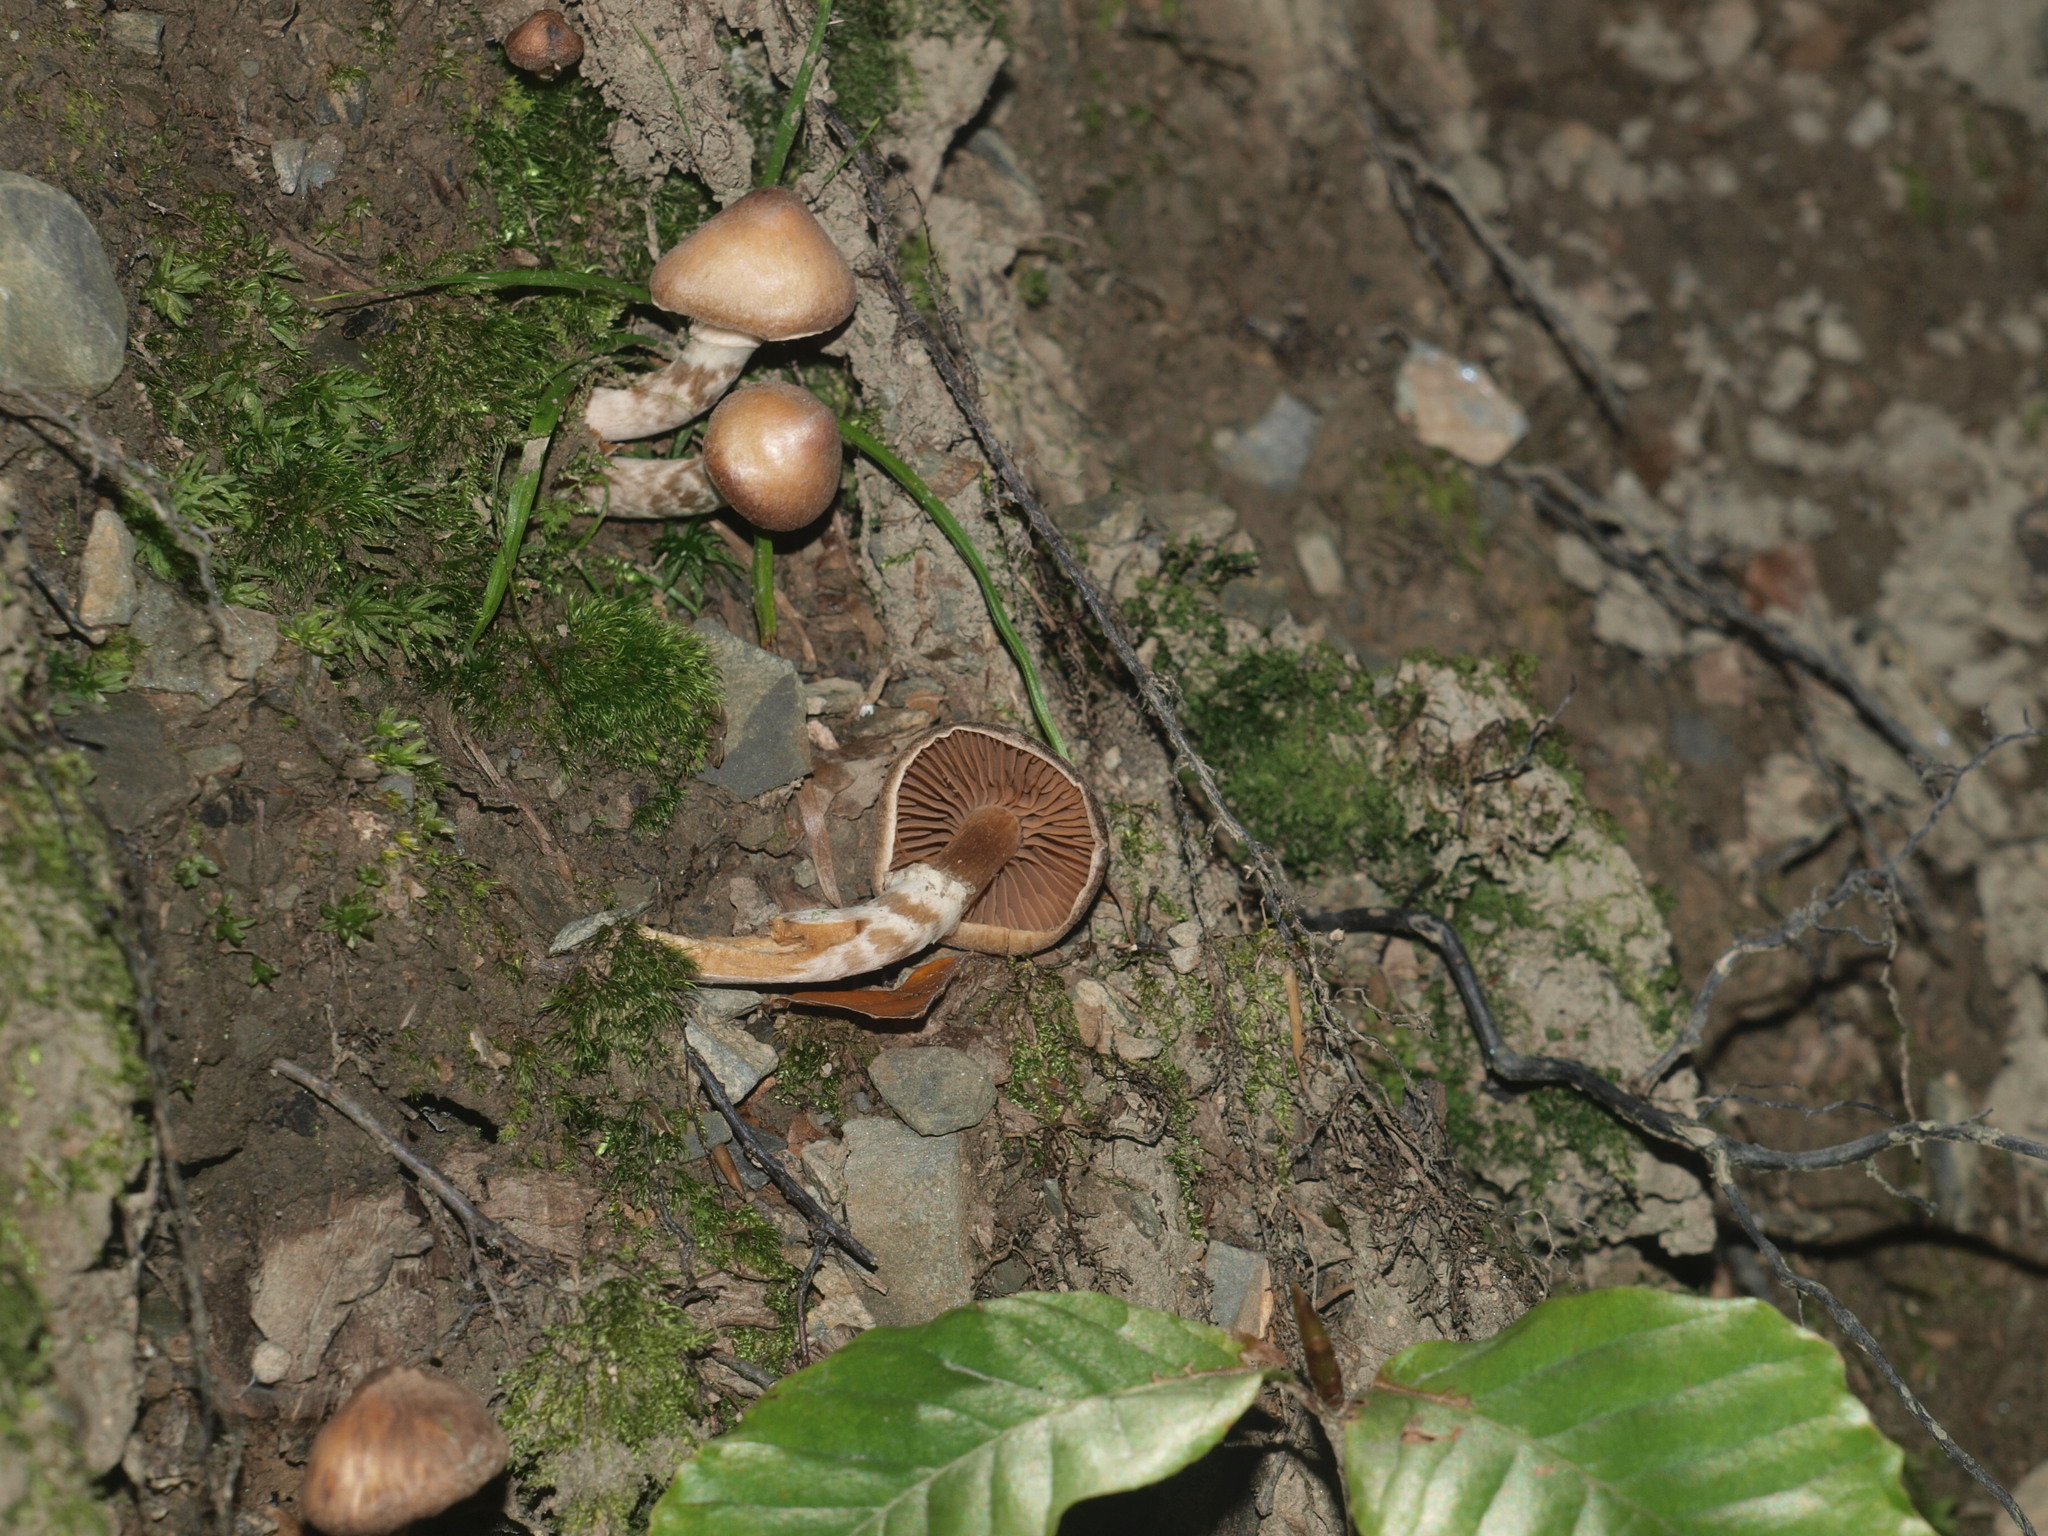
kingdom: Fungi
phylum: Basidiomycota
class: Agaricomycetes
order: Agaricales
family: Cortinariaceae
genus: Cortinarius
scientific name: Cortinarius armillatus
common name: Red banded webcap
